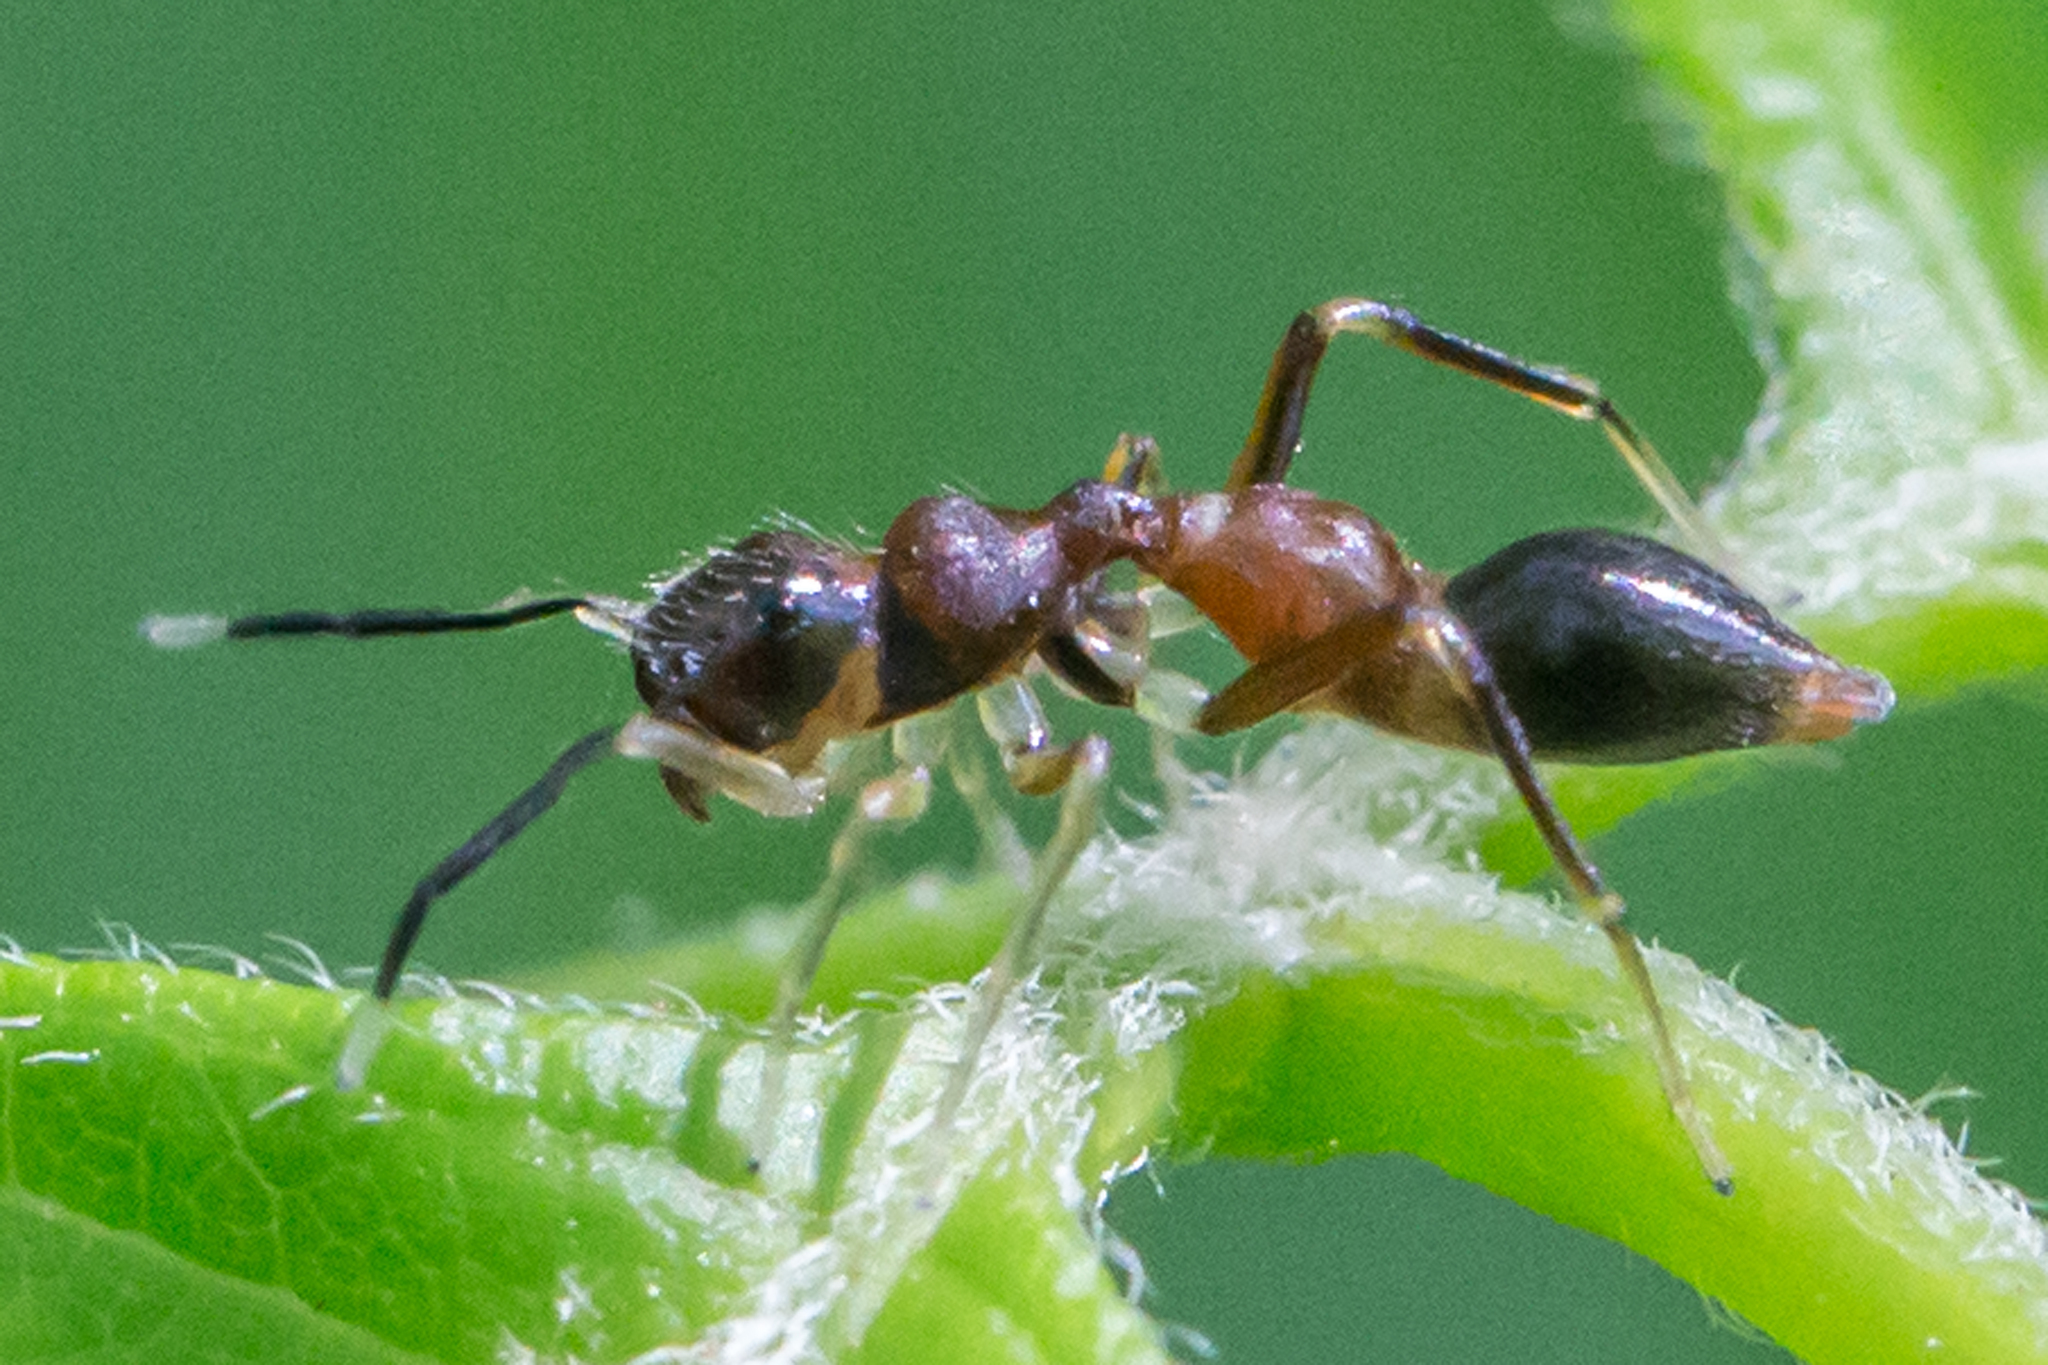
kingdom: Animalia
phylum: Arthropoda
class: Arachnida
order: Araneae
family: Salticidae
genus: Synemosyna
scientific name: Synemosyna formica
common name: Slender ant-mimic jumping spider
